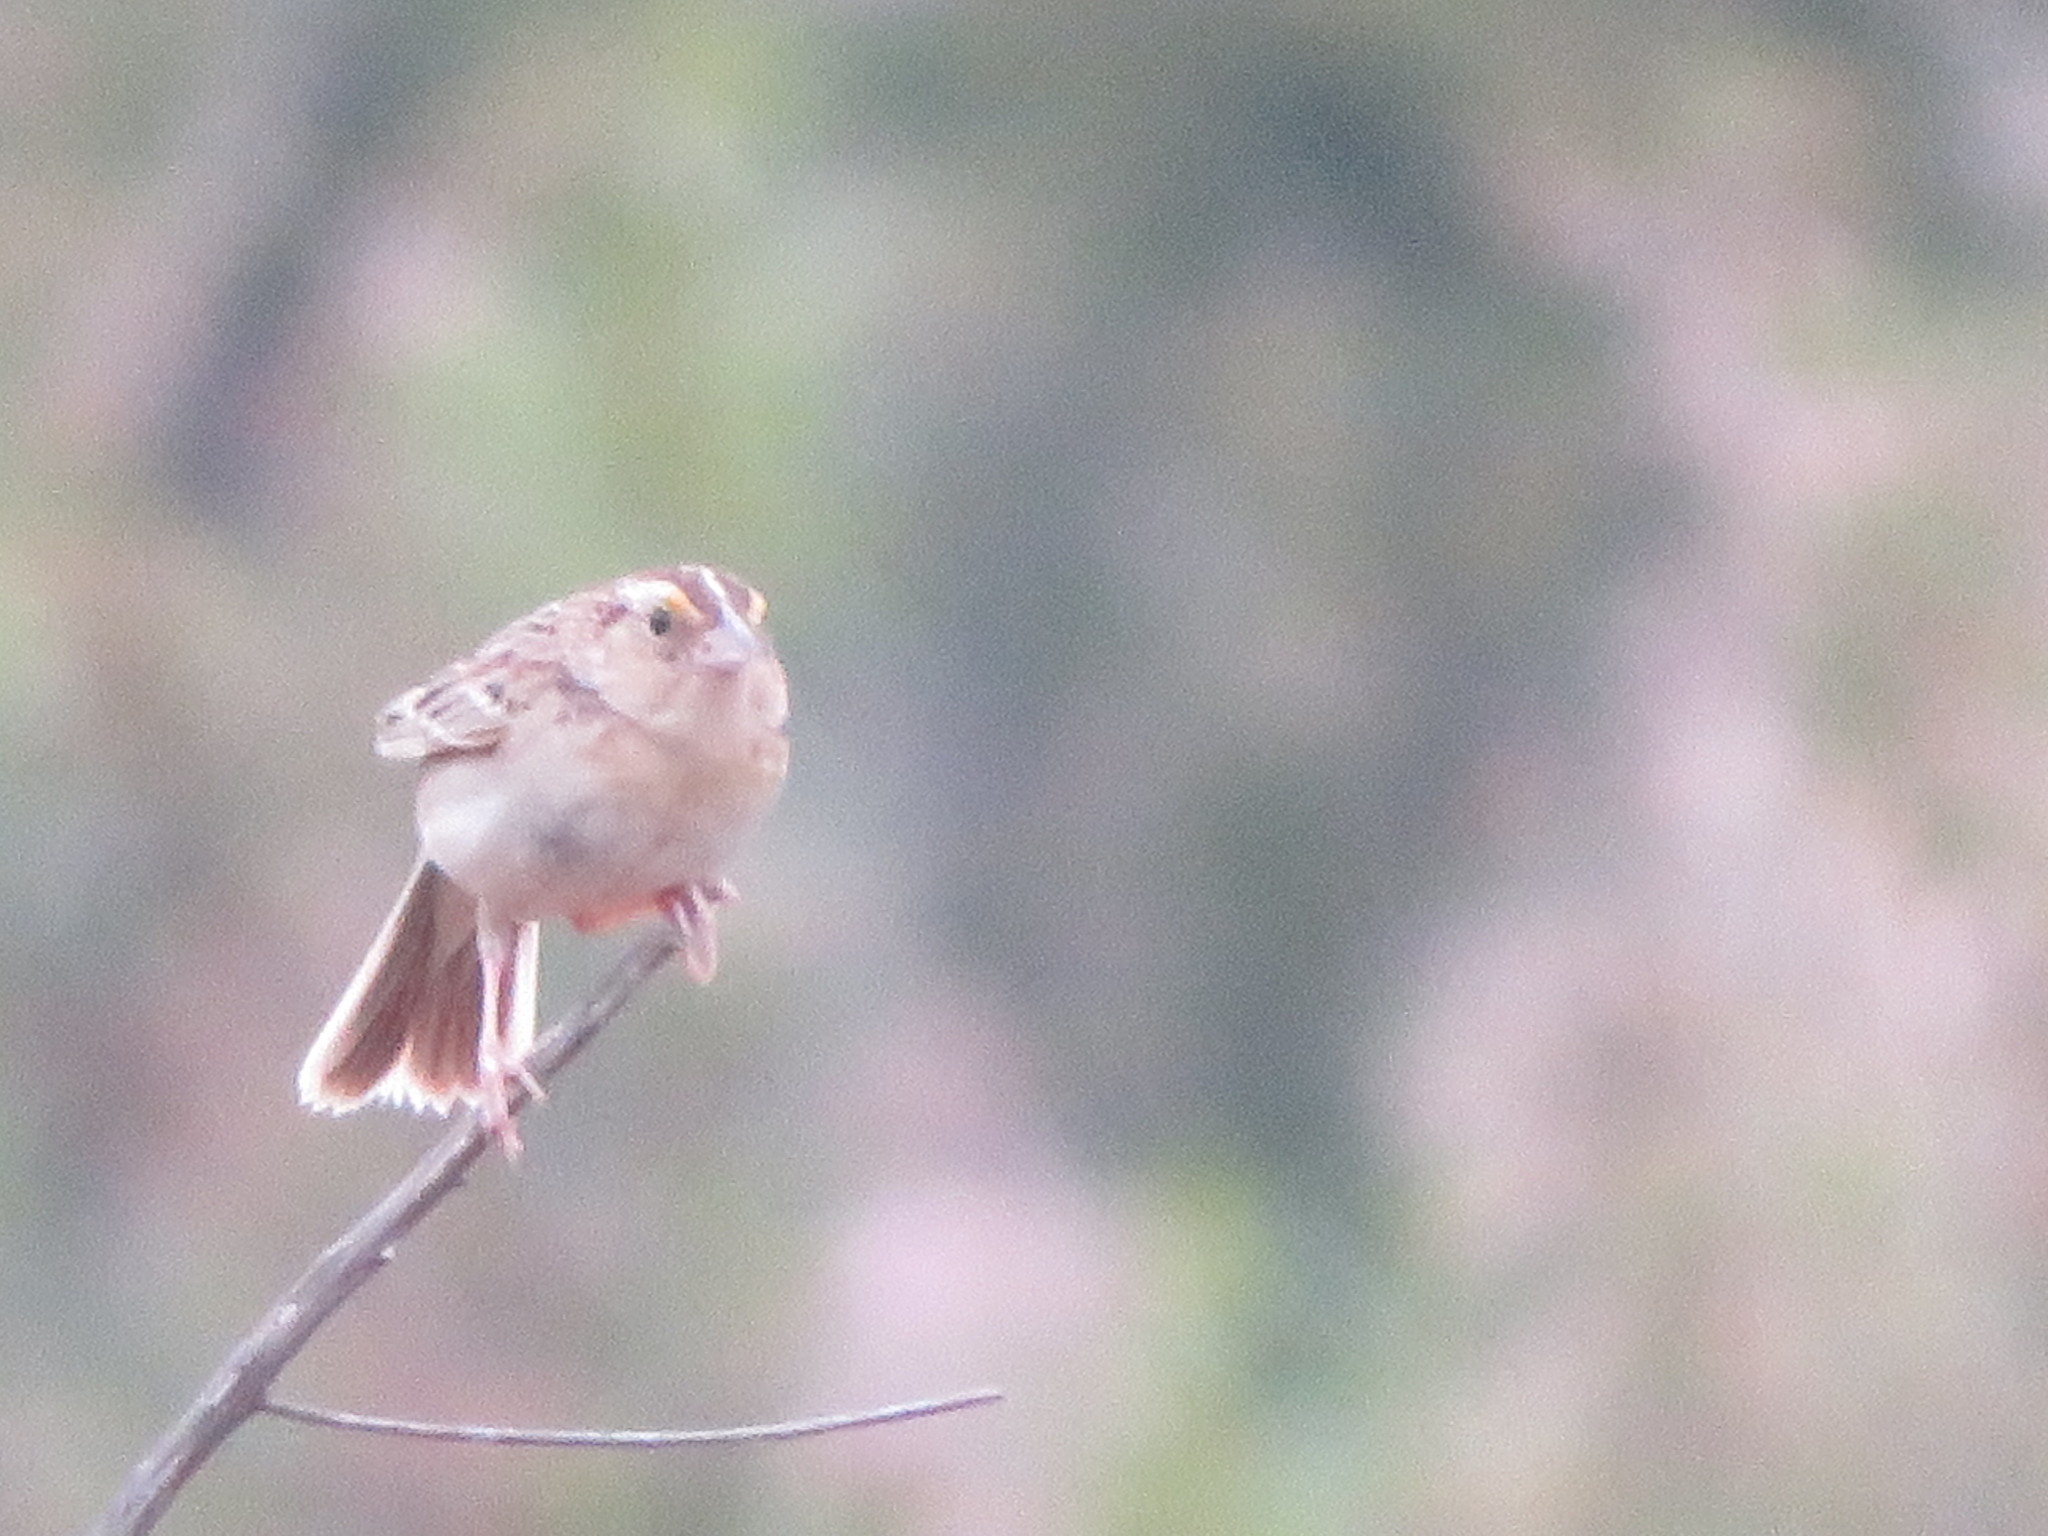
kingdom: Animalia
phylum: Chordata
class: Aves
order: Passeriformes
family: Passerellidae
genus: Ammodramus
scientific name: Ammodramus savannarum
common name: Grasshopper sparrow
